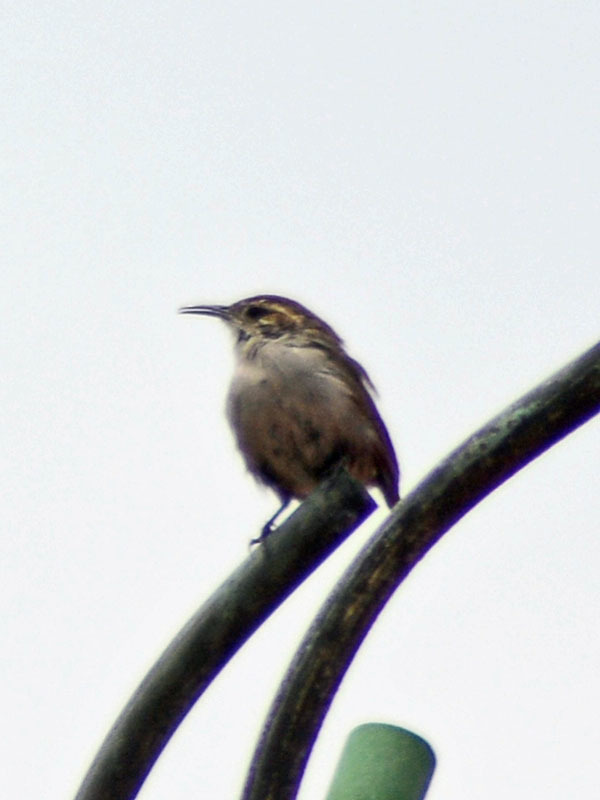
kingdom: Animalia
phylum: Chordata
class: Aves
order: Passeriformes
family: Troglodytidae
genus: Thryomanes
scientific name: Thryomanes bewickii
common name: Bewick's wren
